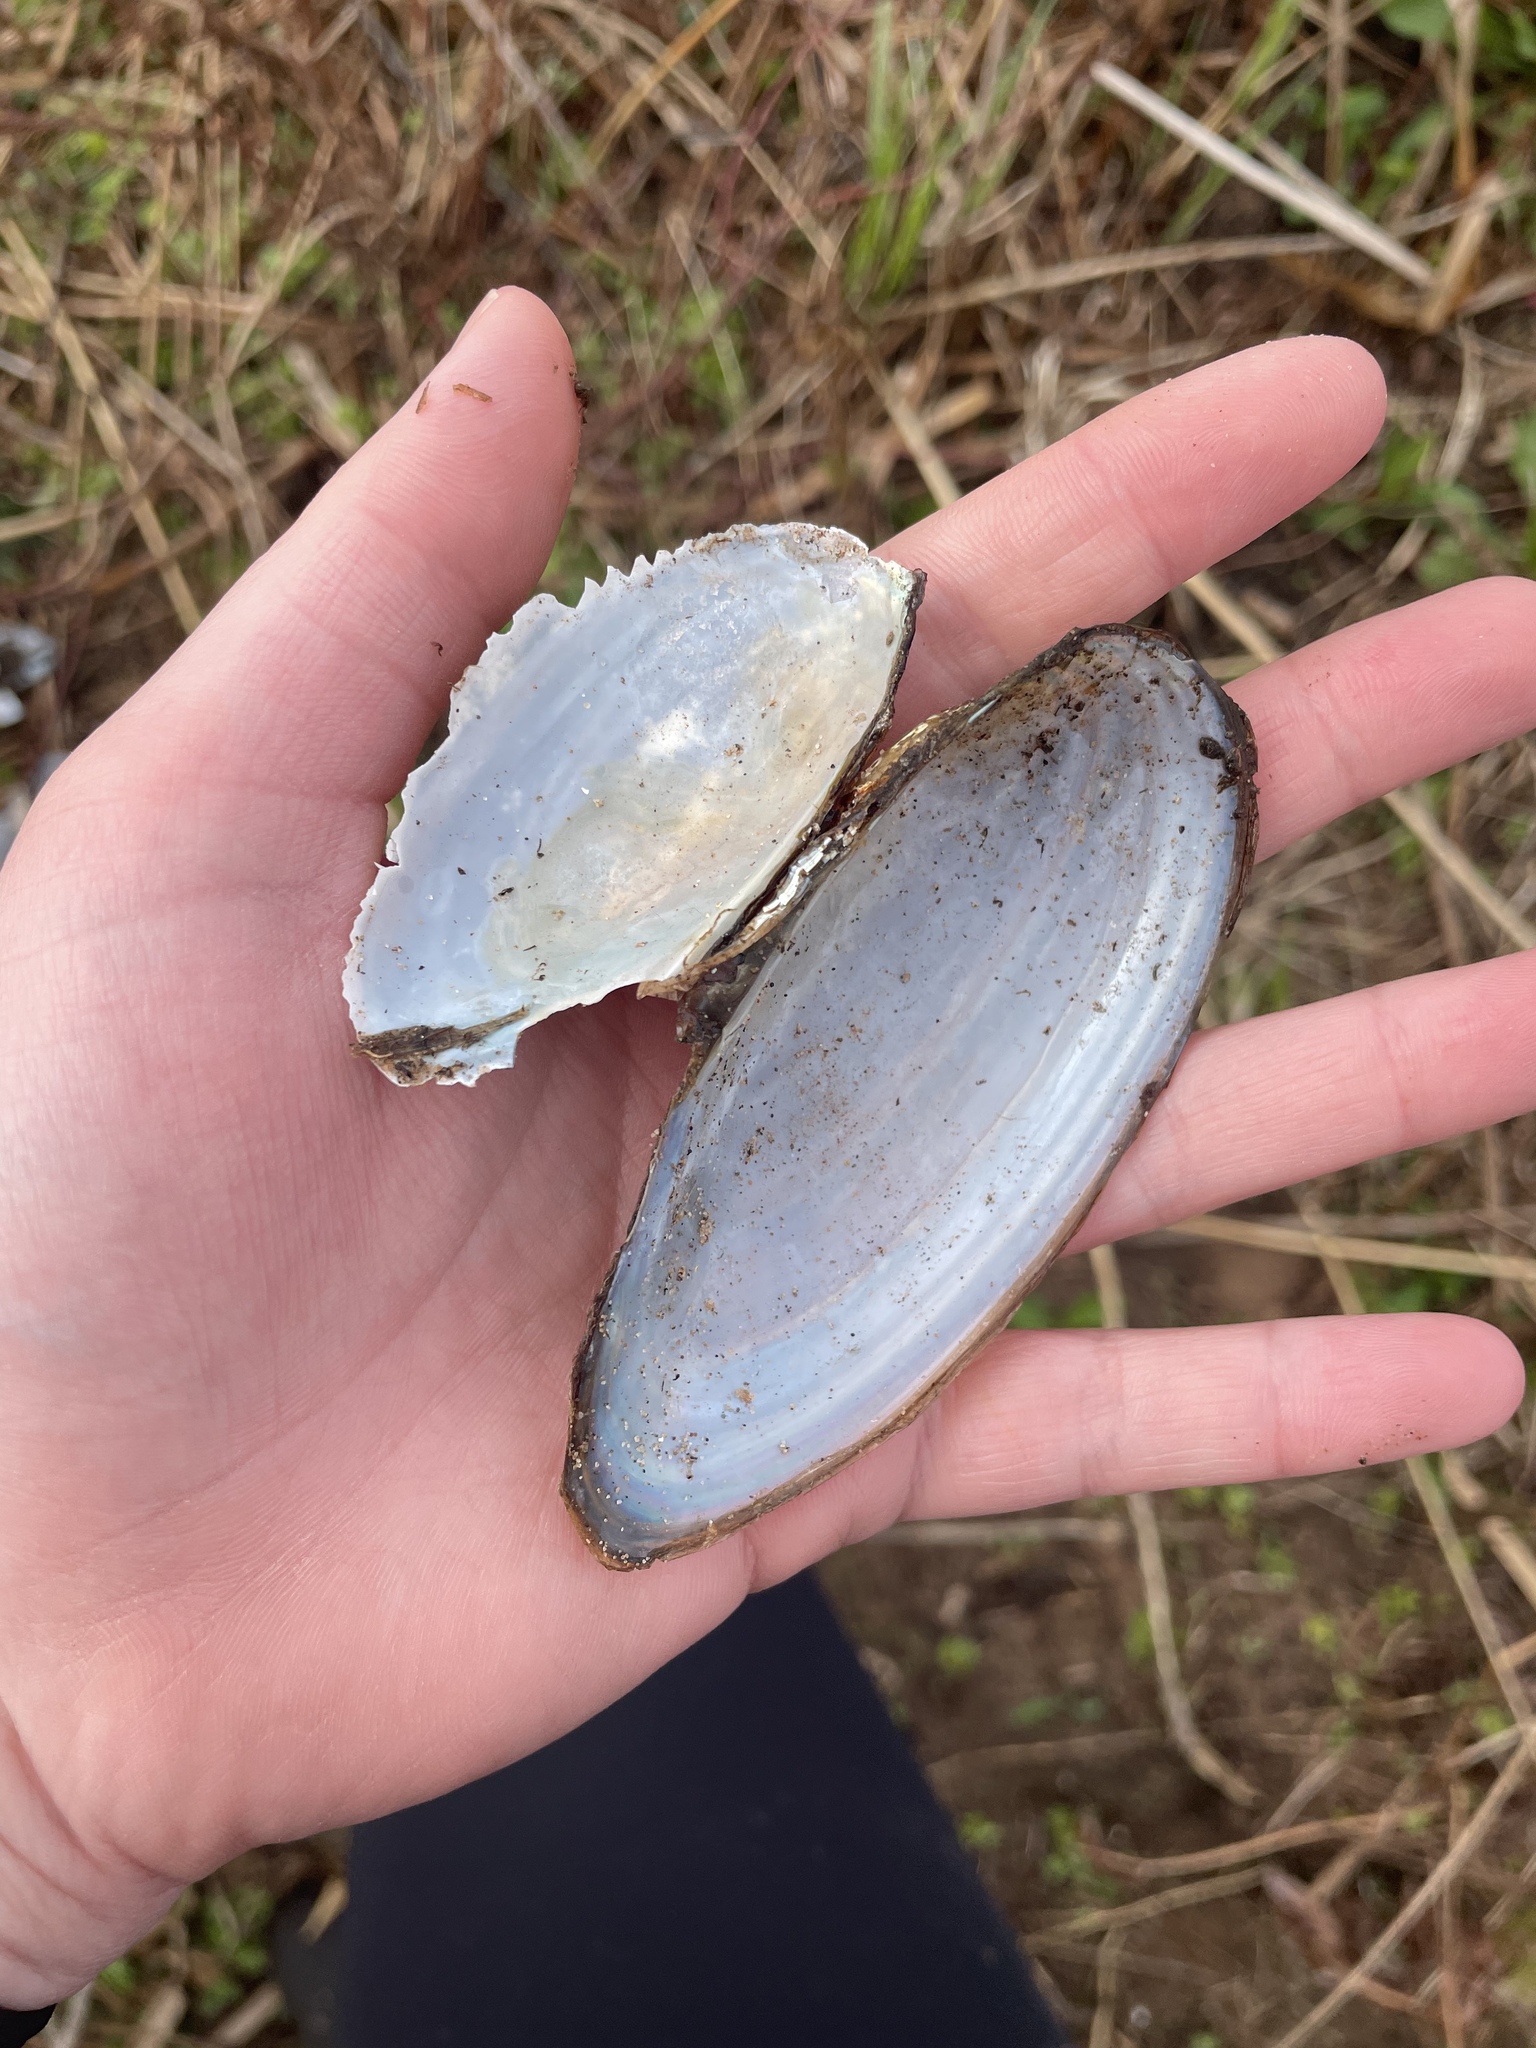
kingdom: Animalia
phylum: Mollusca
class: Bivalvia
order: Unionida
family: Unionidae
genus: Pyganodon
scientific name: Pyganodon cataracta
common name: Eastern floater
